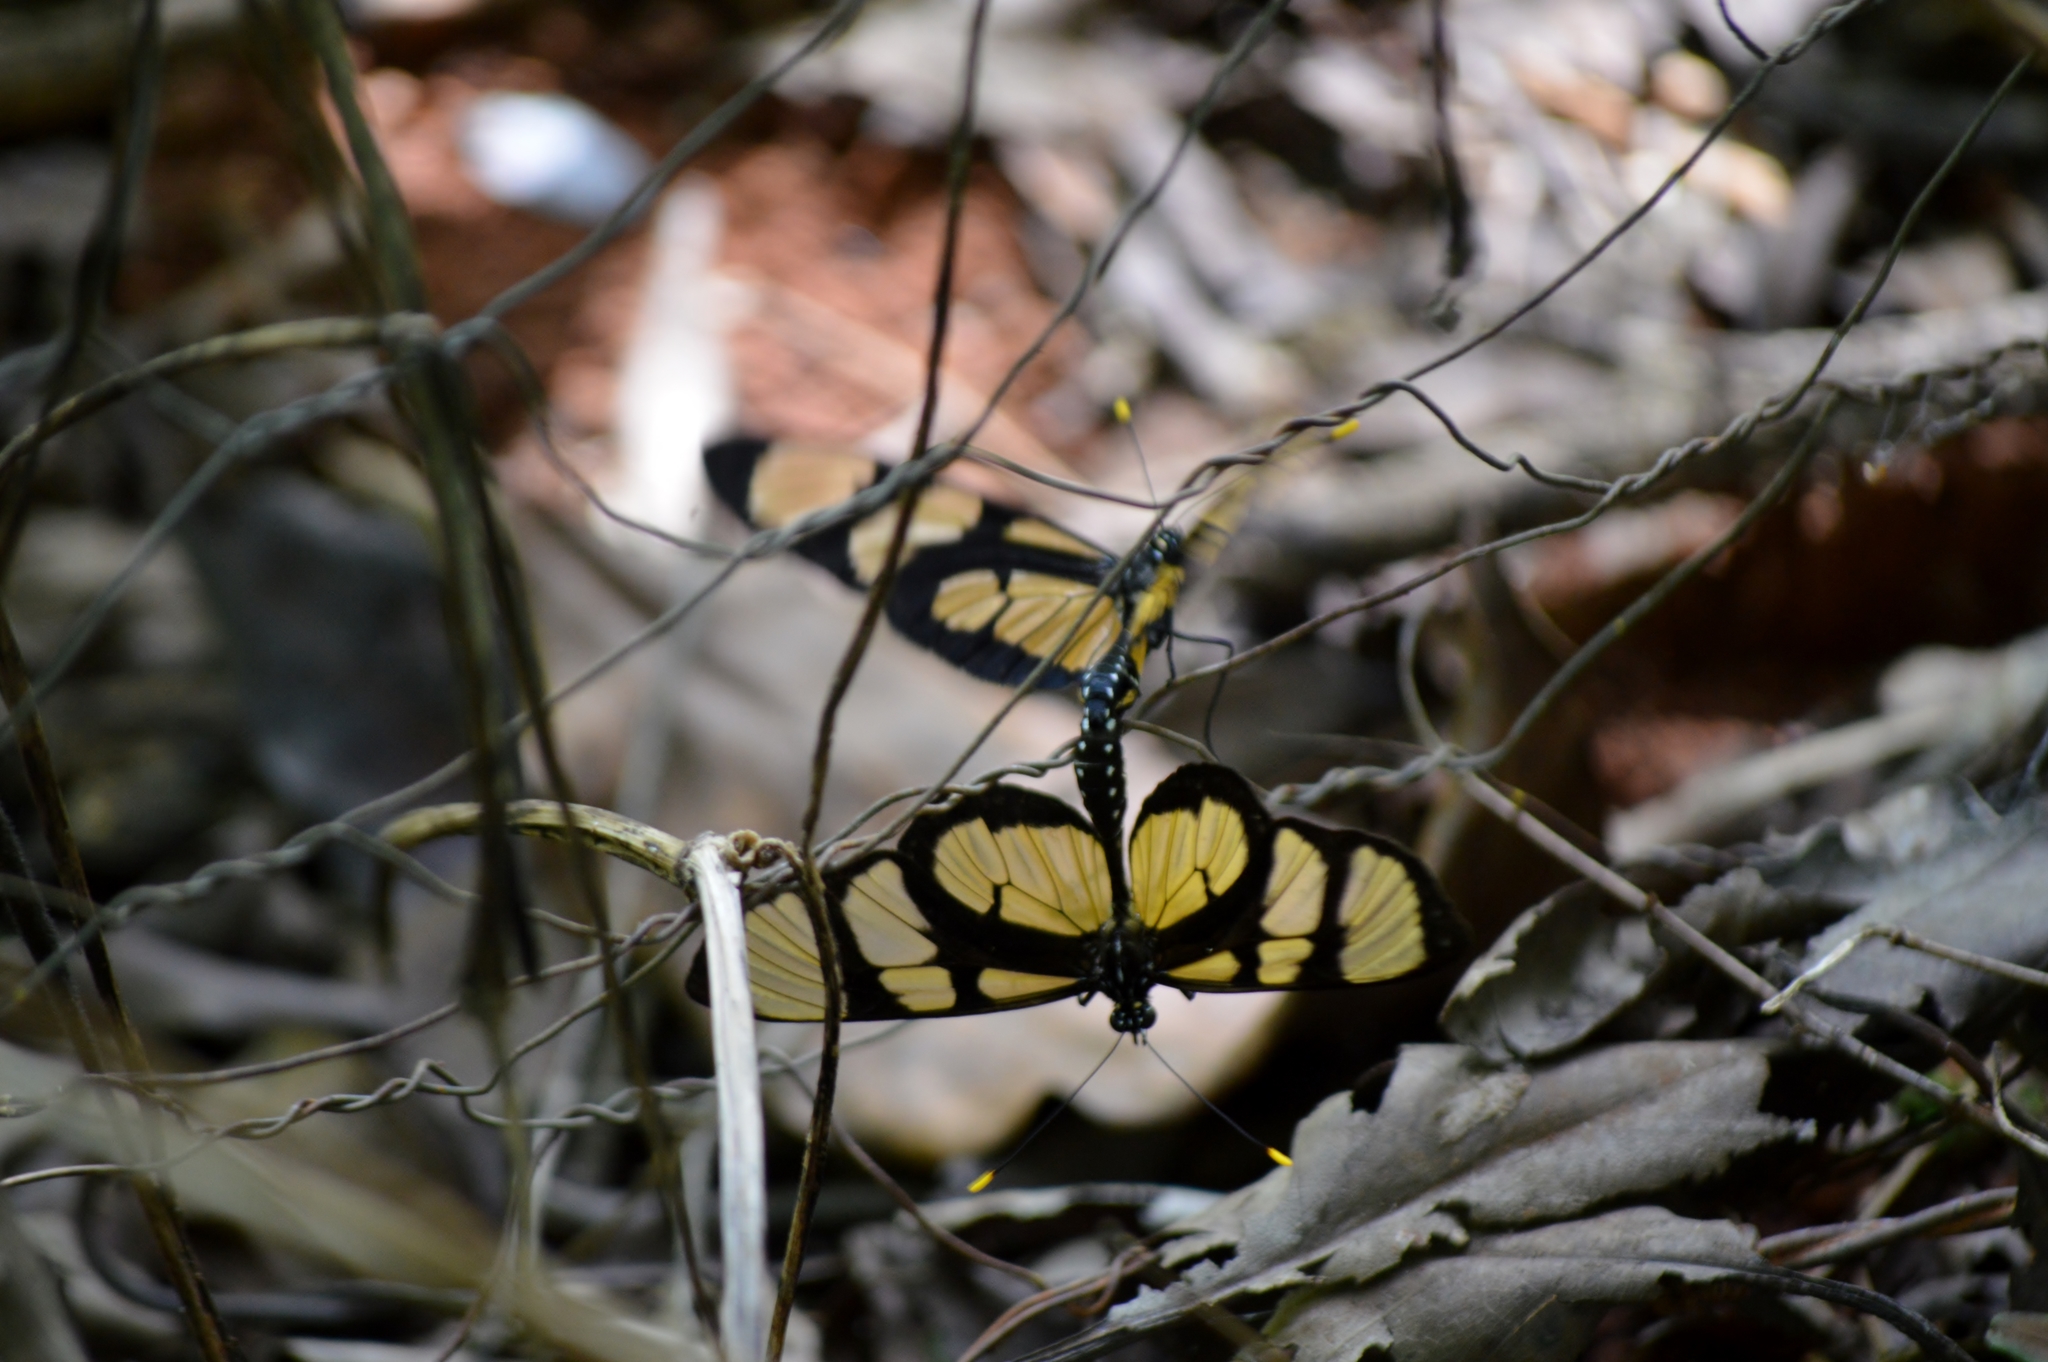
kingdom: Animalia
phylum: Arthropoda
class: Insecta
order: Lepidoptera
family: Nymphalidae
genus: Methona
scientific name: Methona themisto
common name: Themisto amberwing
